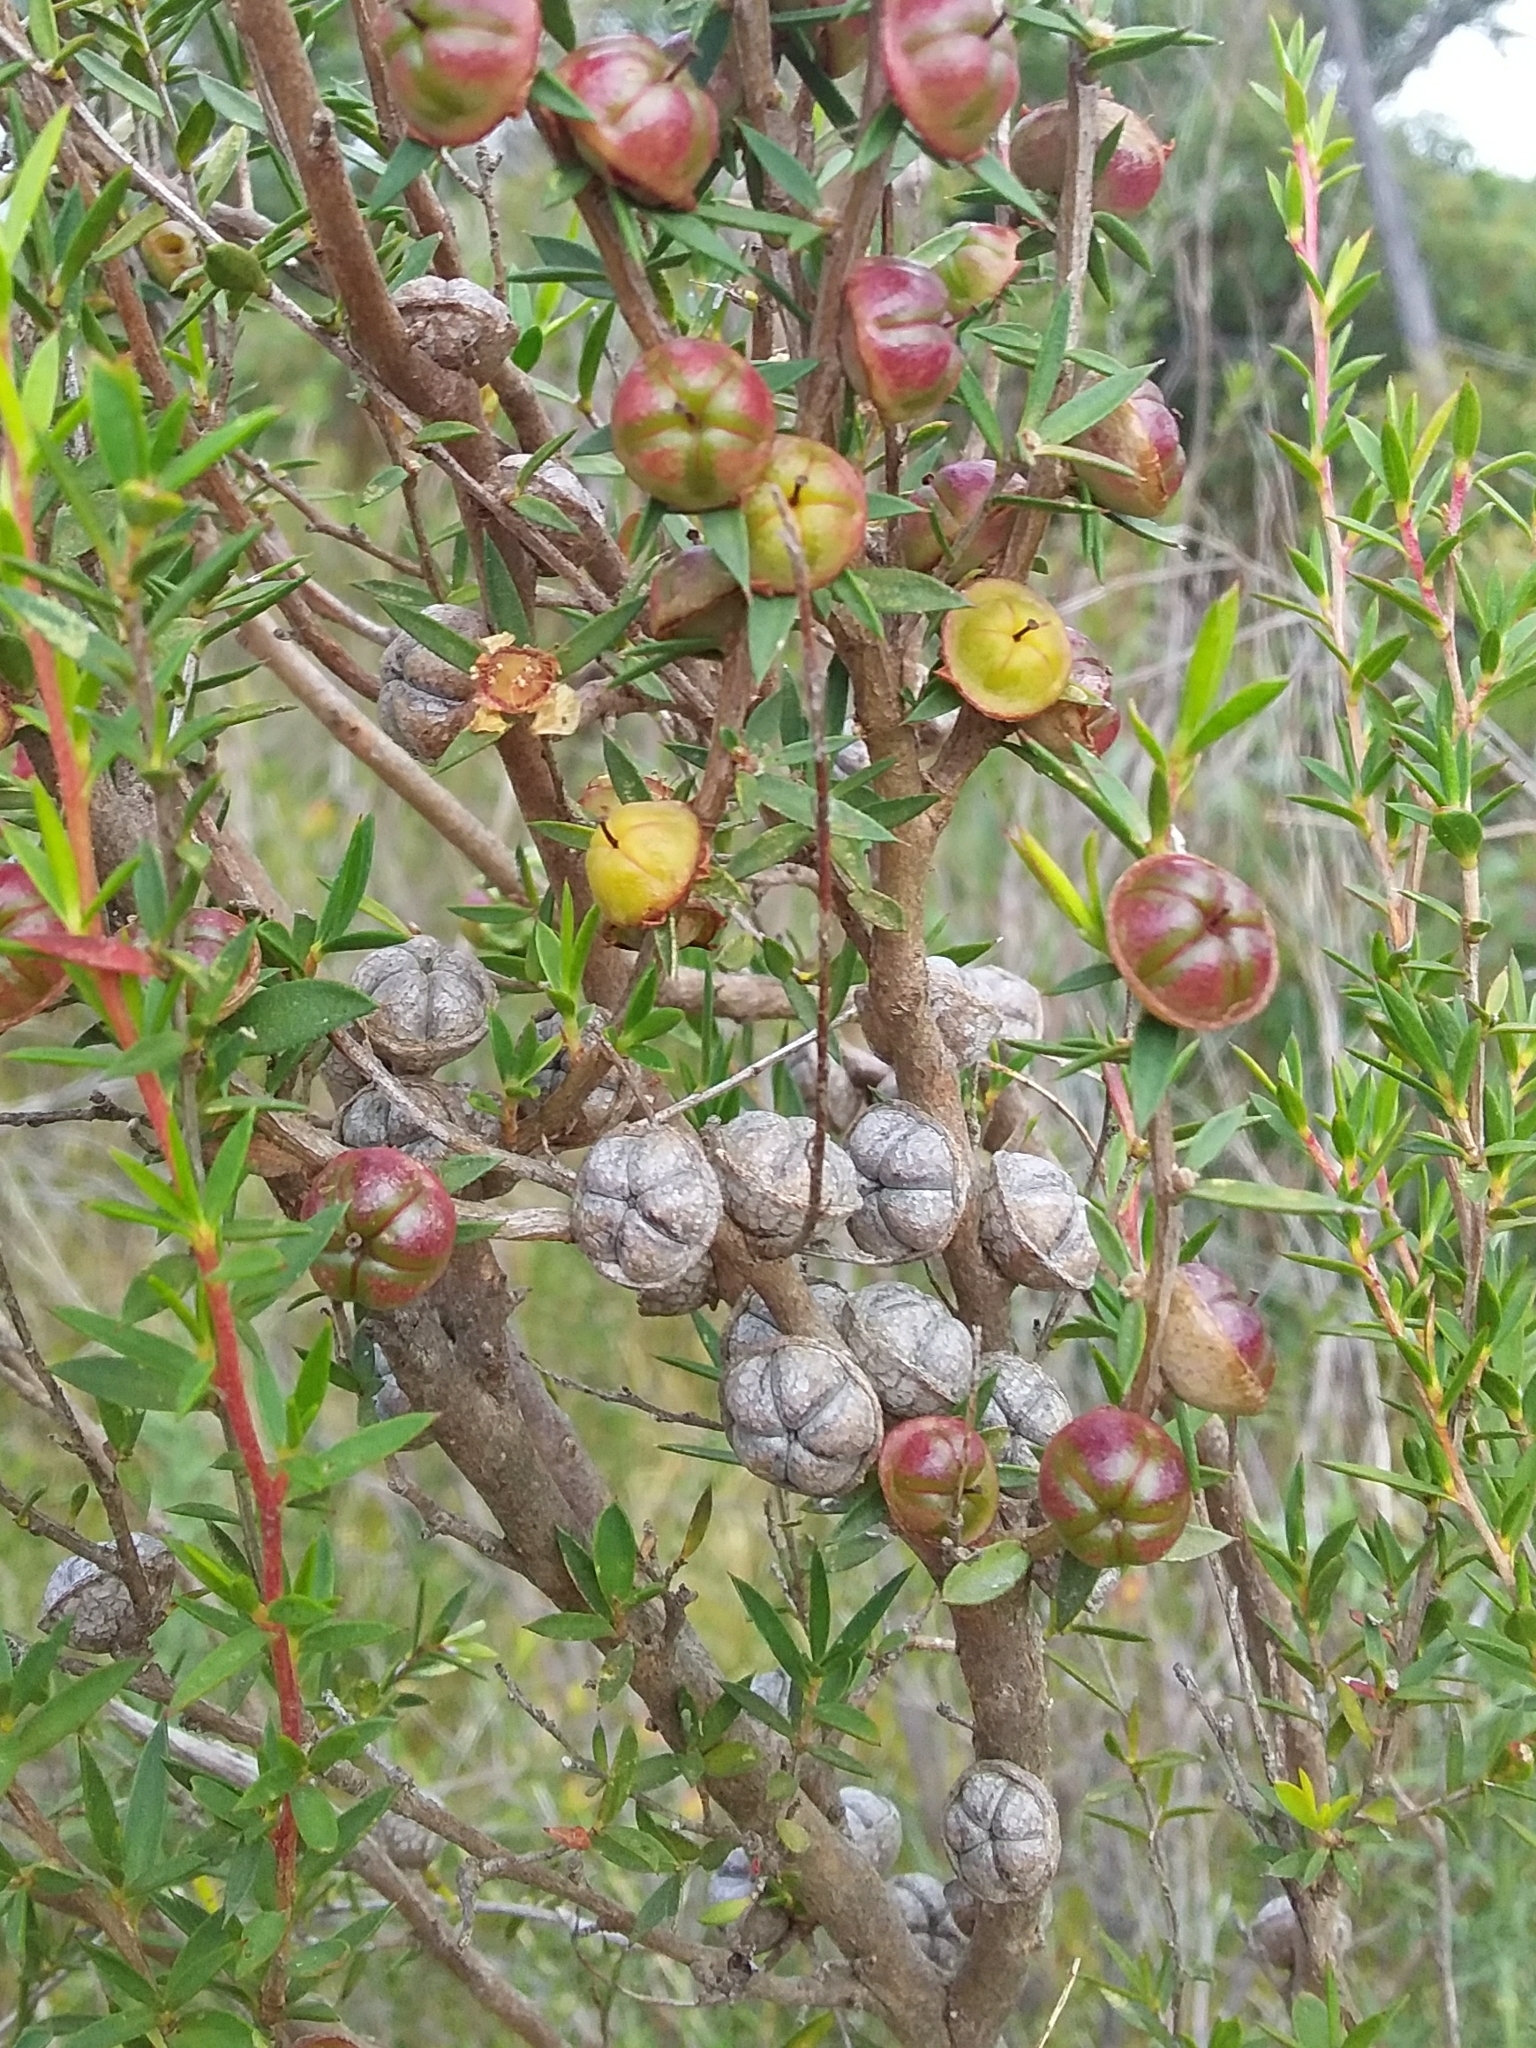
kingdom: Plantae
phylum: Tracheophyta
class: Magnoliopsida
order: Myrtales
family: Myrtaceae
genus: Leptospermum
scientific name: Leptospermum continentale
